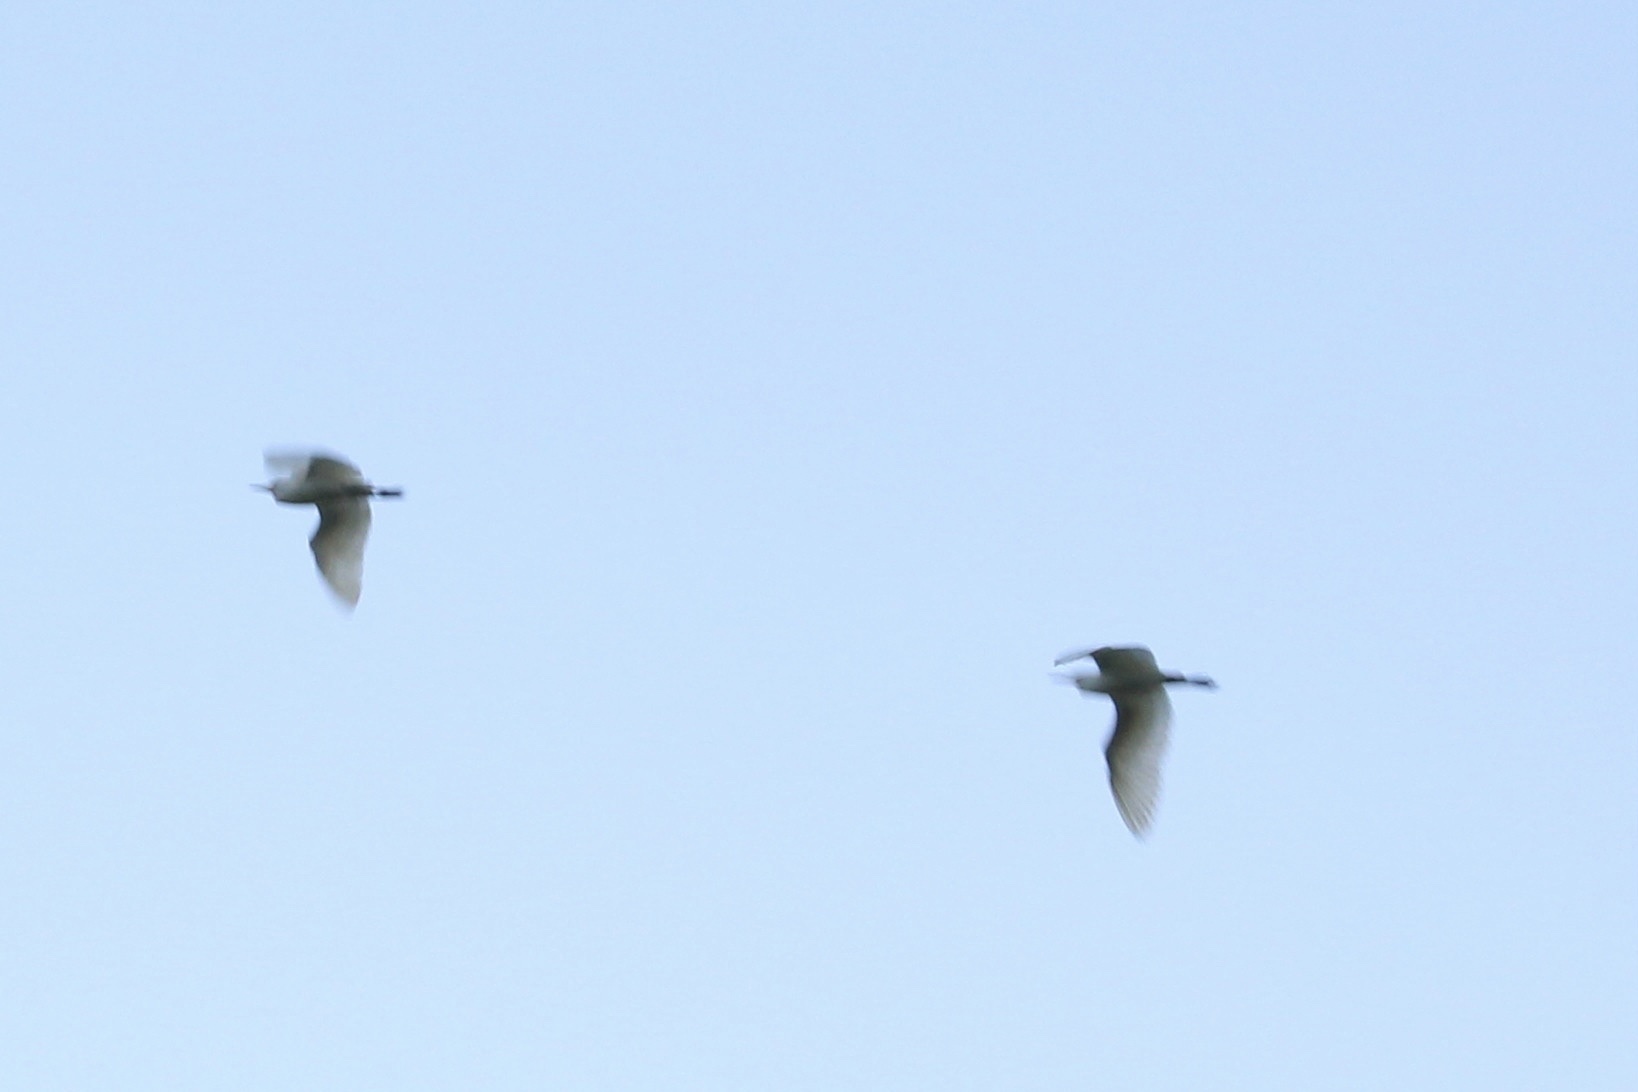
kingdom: Animalia
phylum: Chordata
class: Aves
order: Pelecaniformes
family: Ardeidae
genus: Bubulcus
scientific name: Bubulcus ibis
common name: Cattle egret
